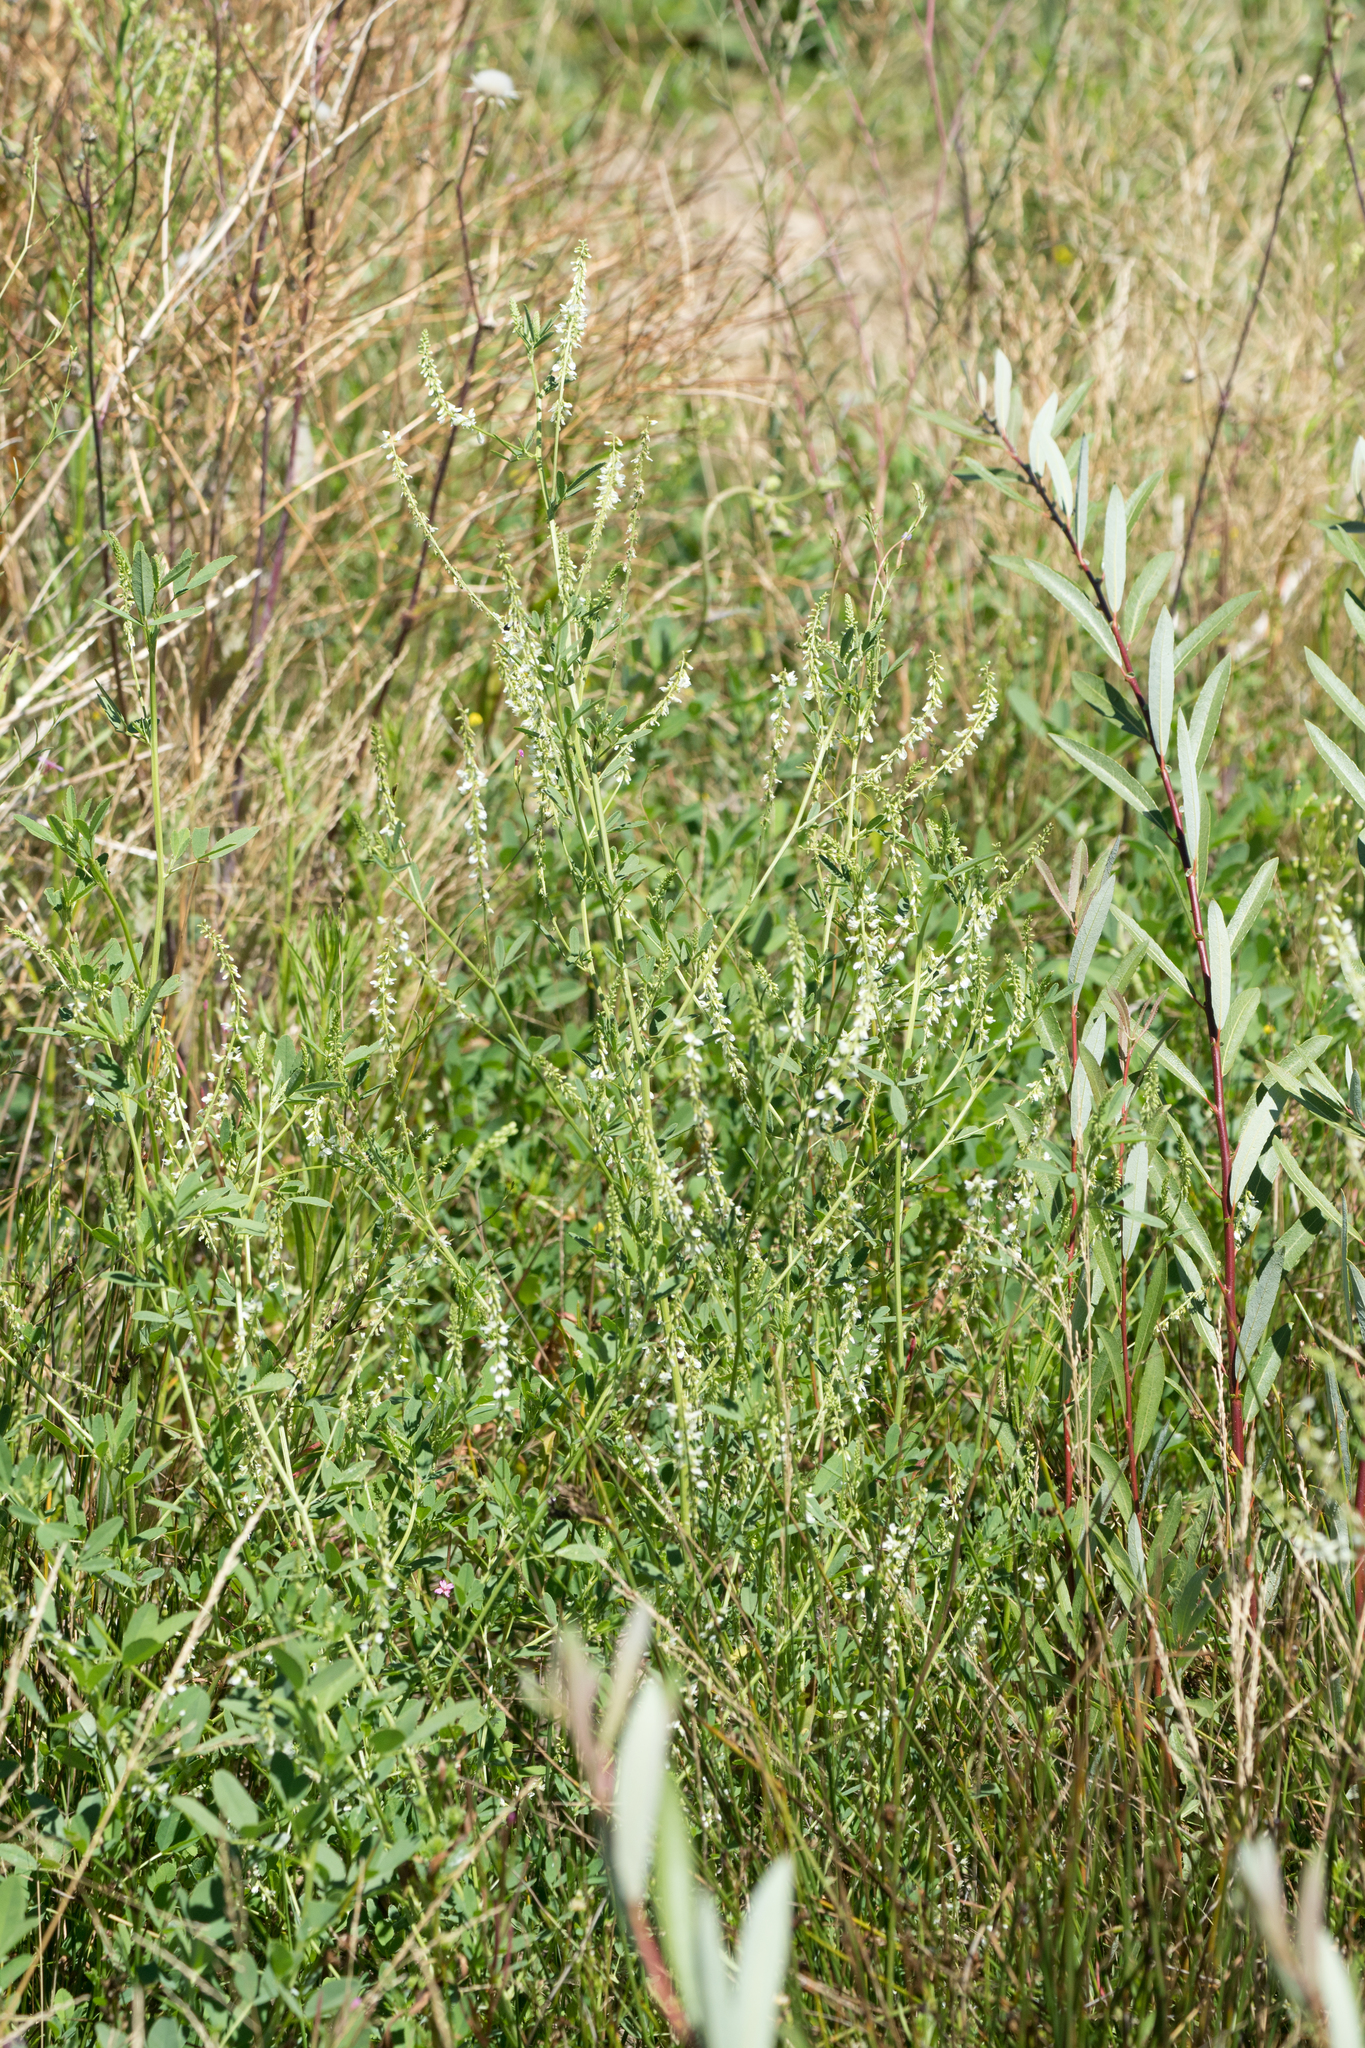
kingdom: Plantae
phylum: Tracheophyta
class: Magnoliopsida
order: Fabales
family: Fabaceae
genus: Melilotus
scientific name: Melilotus albus
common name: White melilot
